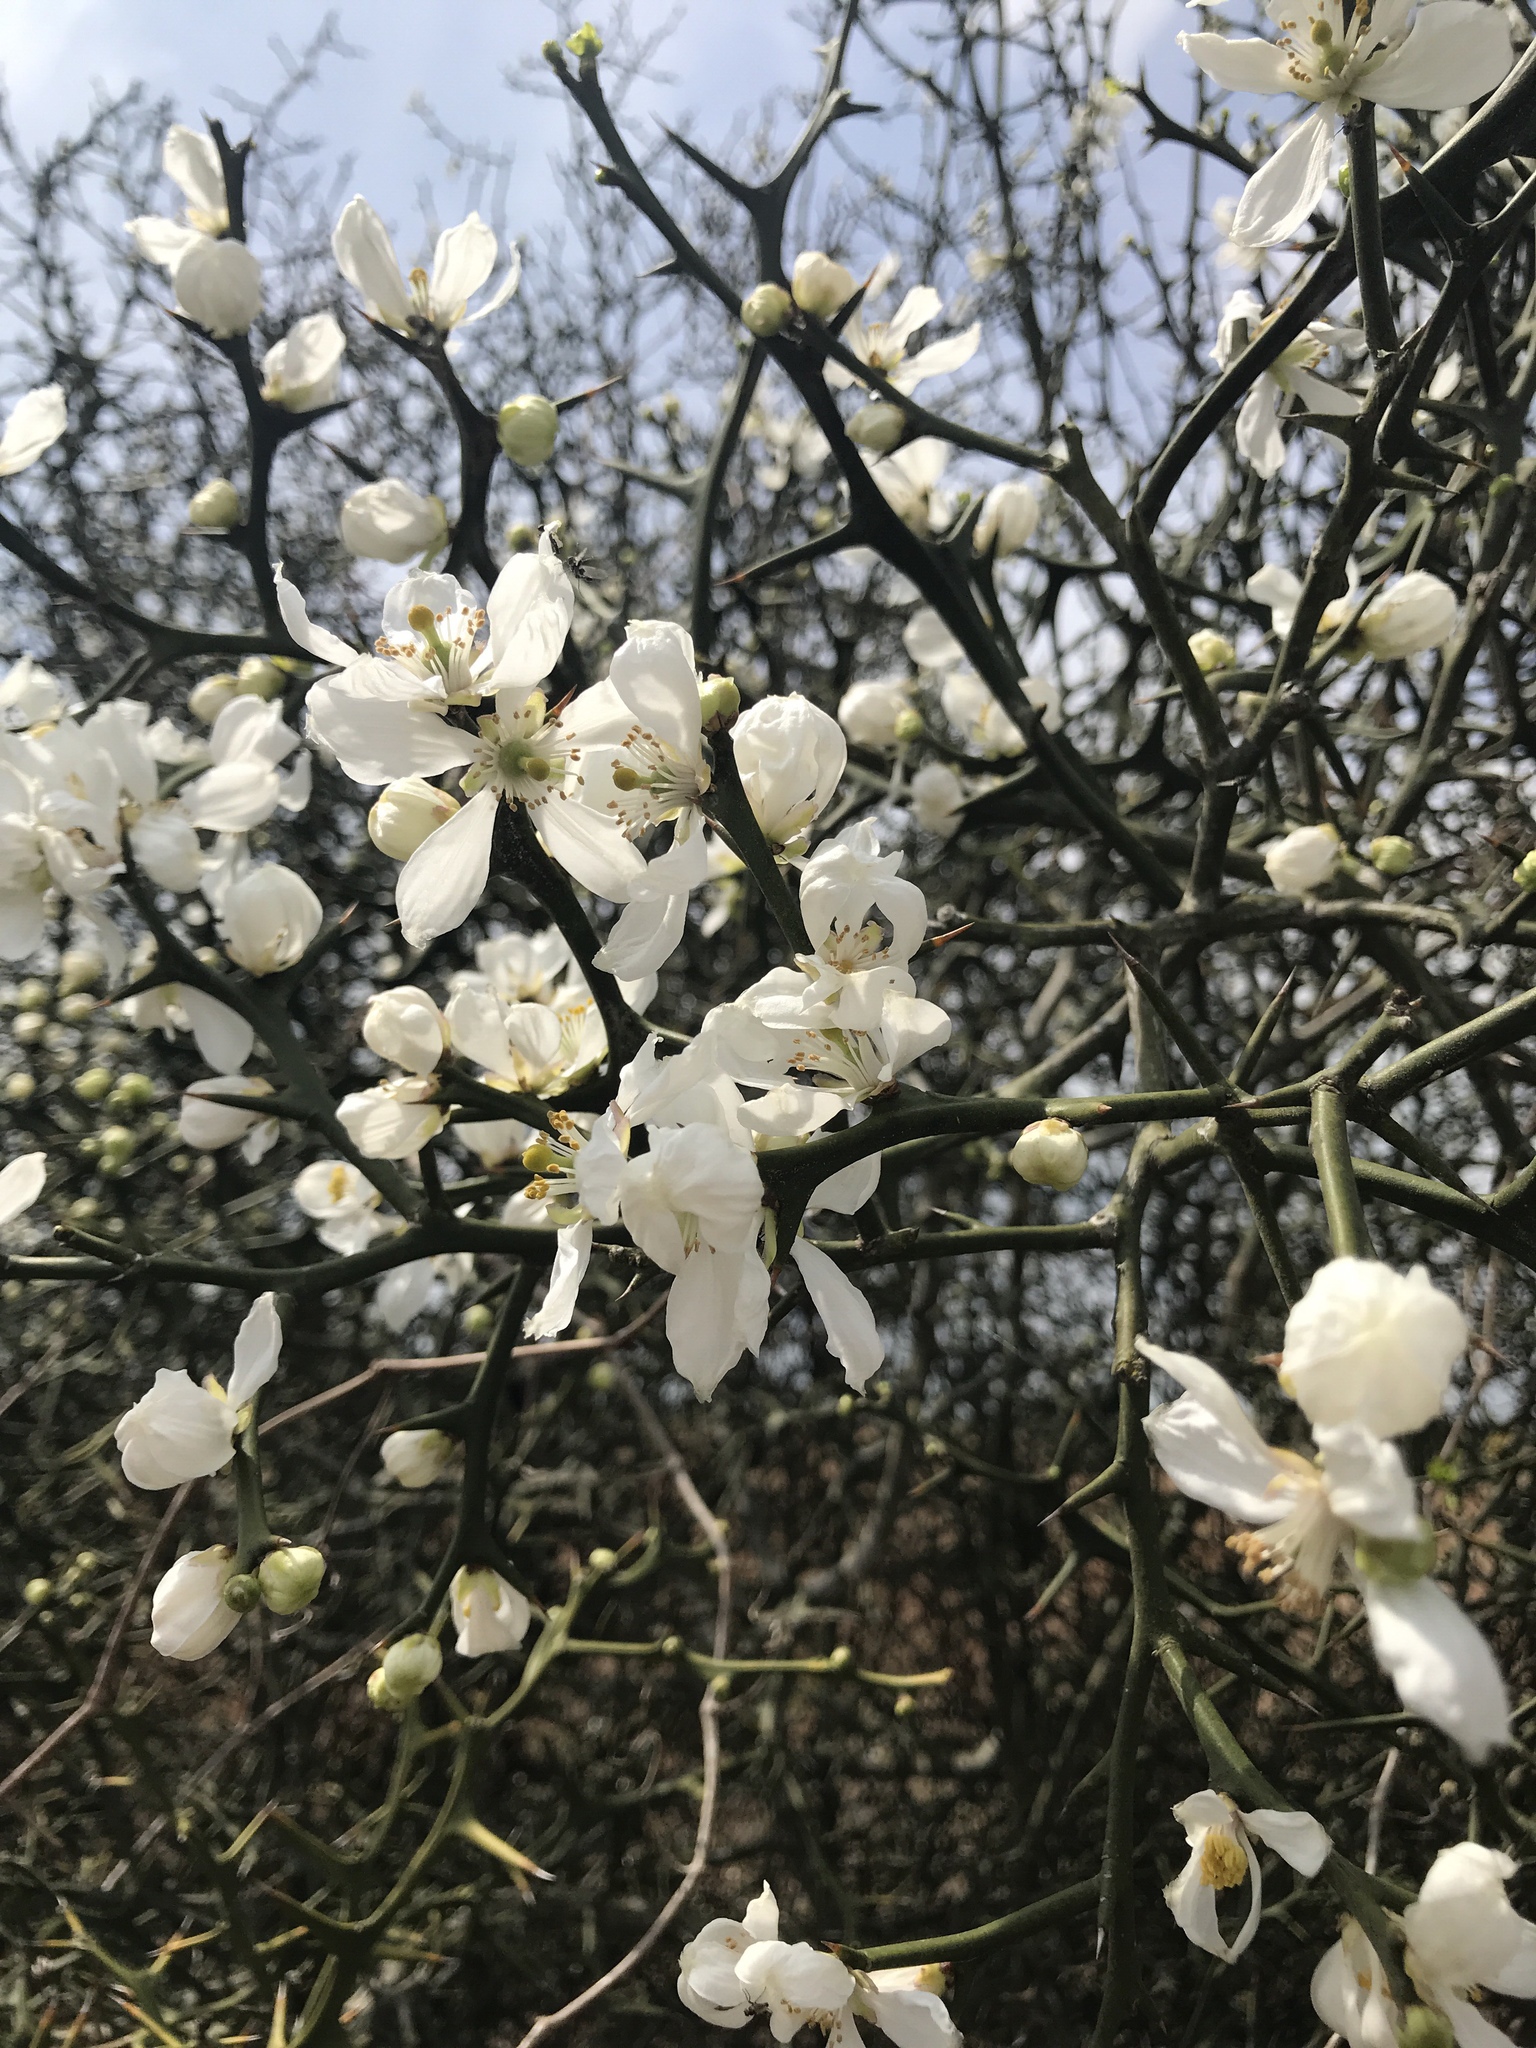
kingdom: Plantae
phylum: Tracheophyta
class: Magnoliopsida
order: Sapindales
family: Rutaceae
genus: Citrus
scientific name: Citrus trifoliata
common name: Japanese bitter-orange
